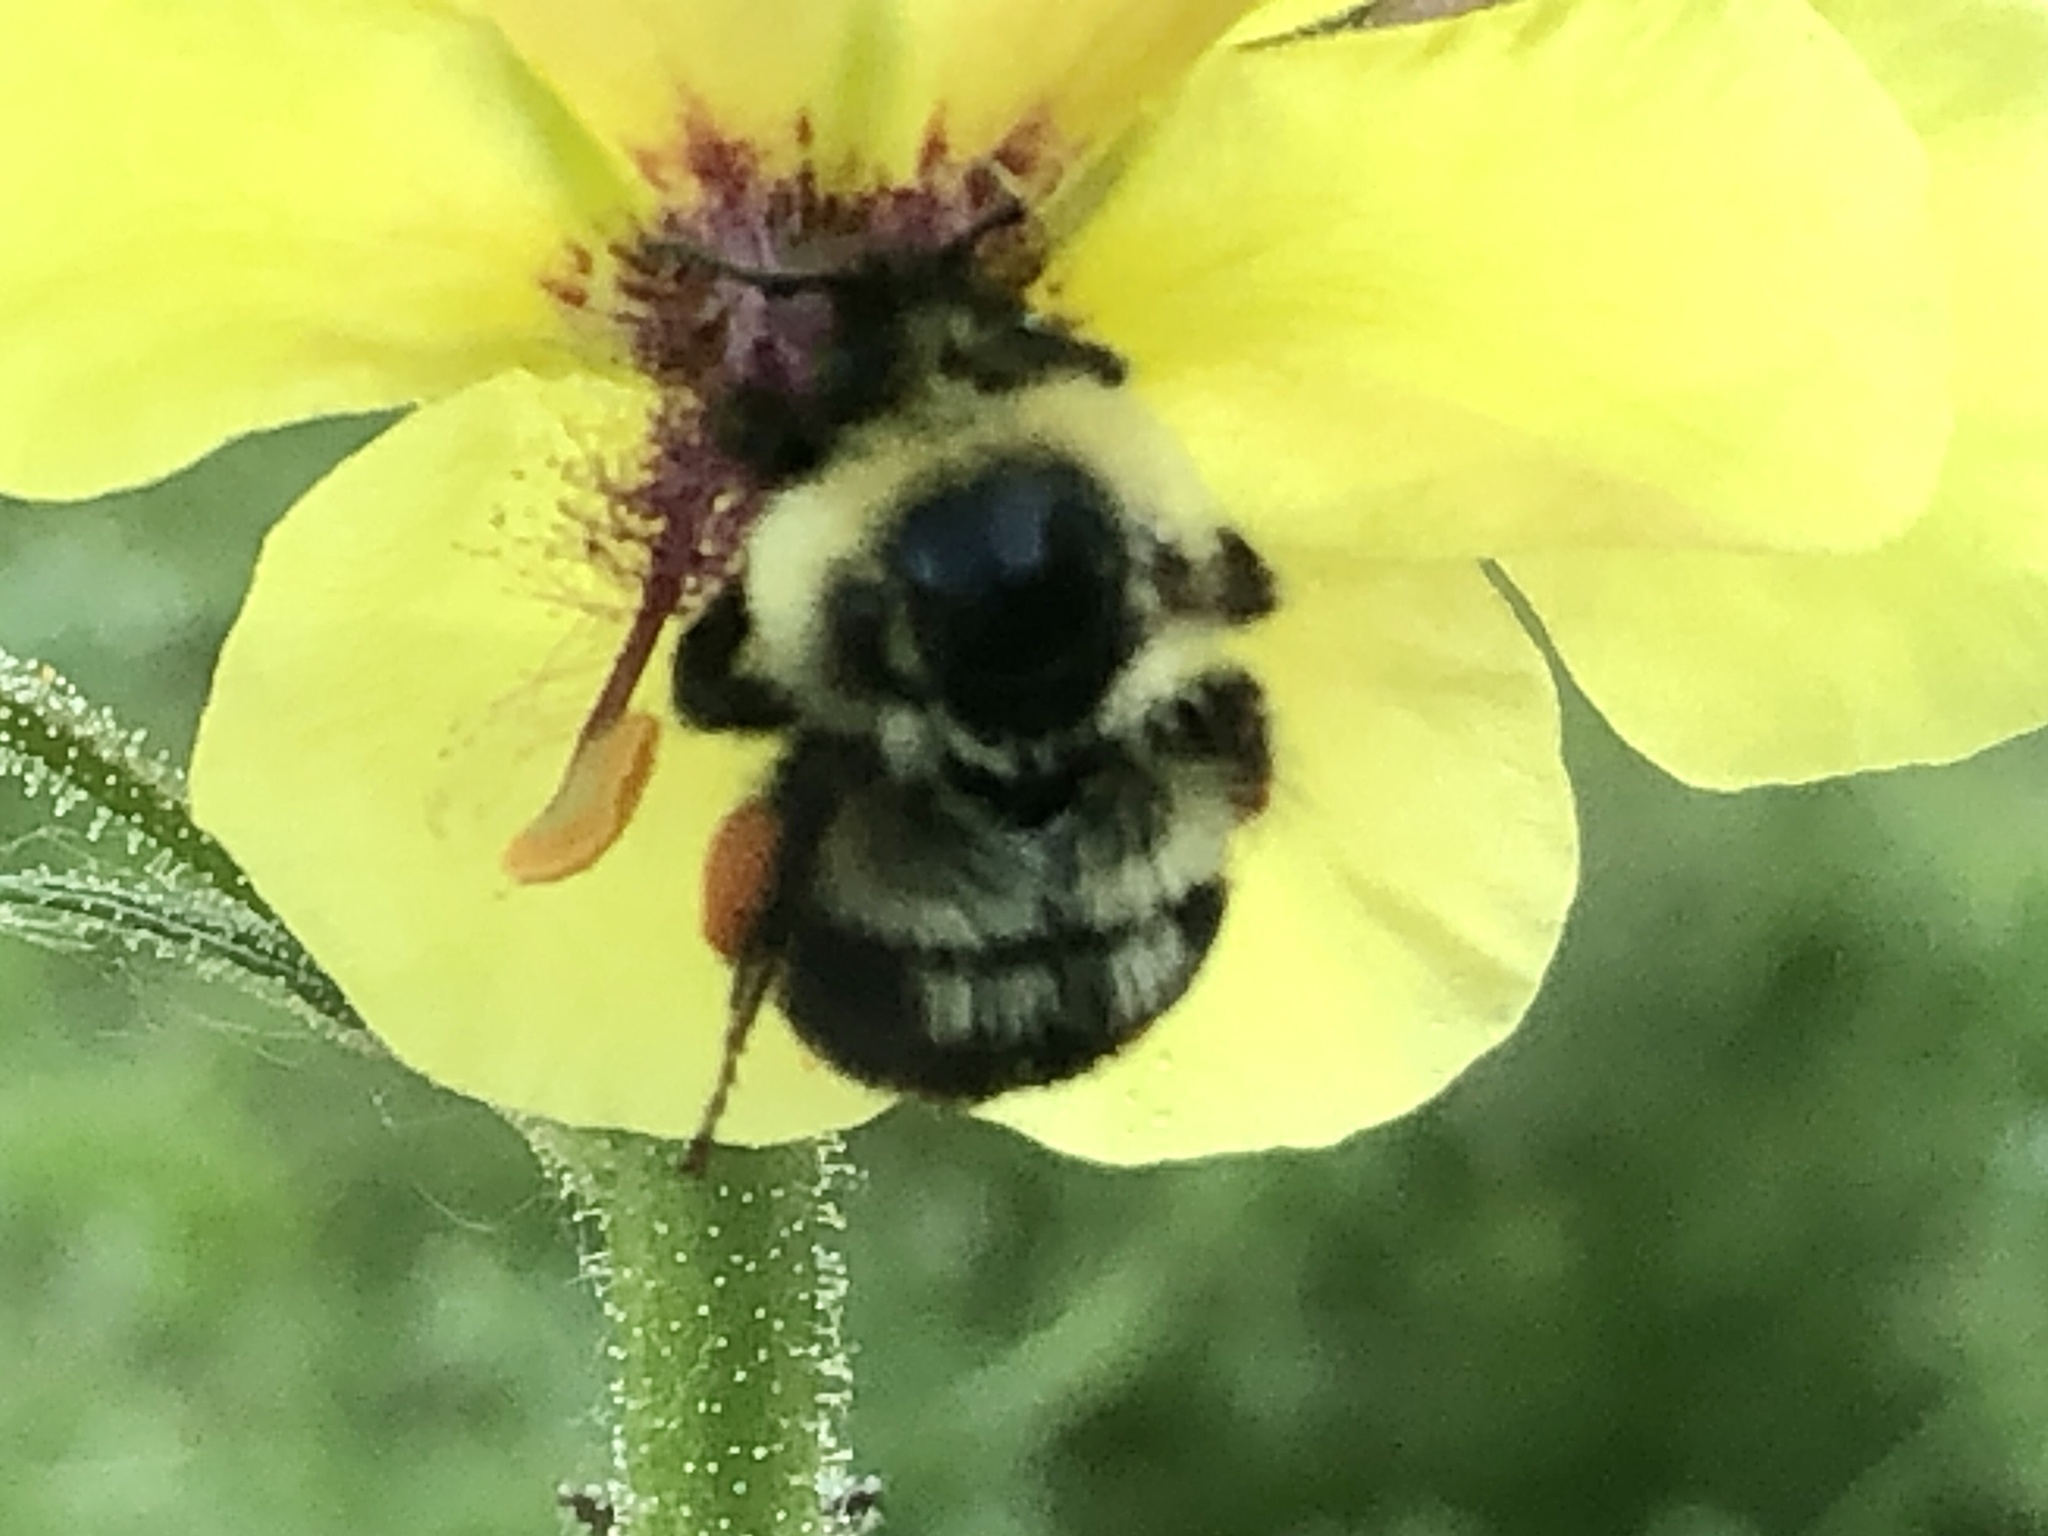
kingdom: Animalia
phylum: Arthropoda
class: Insecta
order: Hymenoptera
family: Apidae
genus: Bombus
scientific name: Bombus bimaculatus
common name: Two-spotted bumble bee
